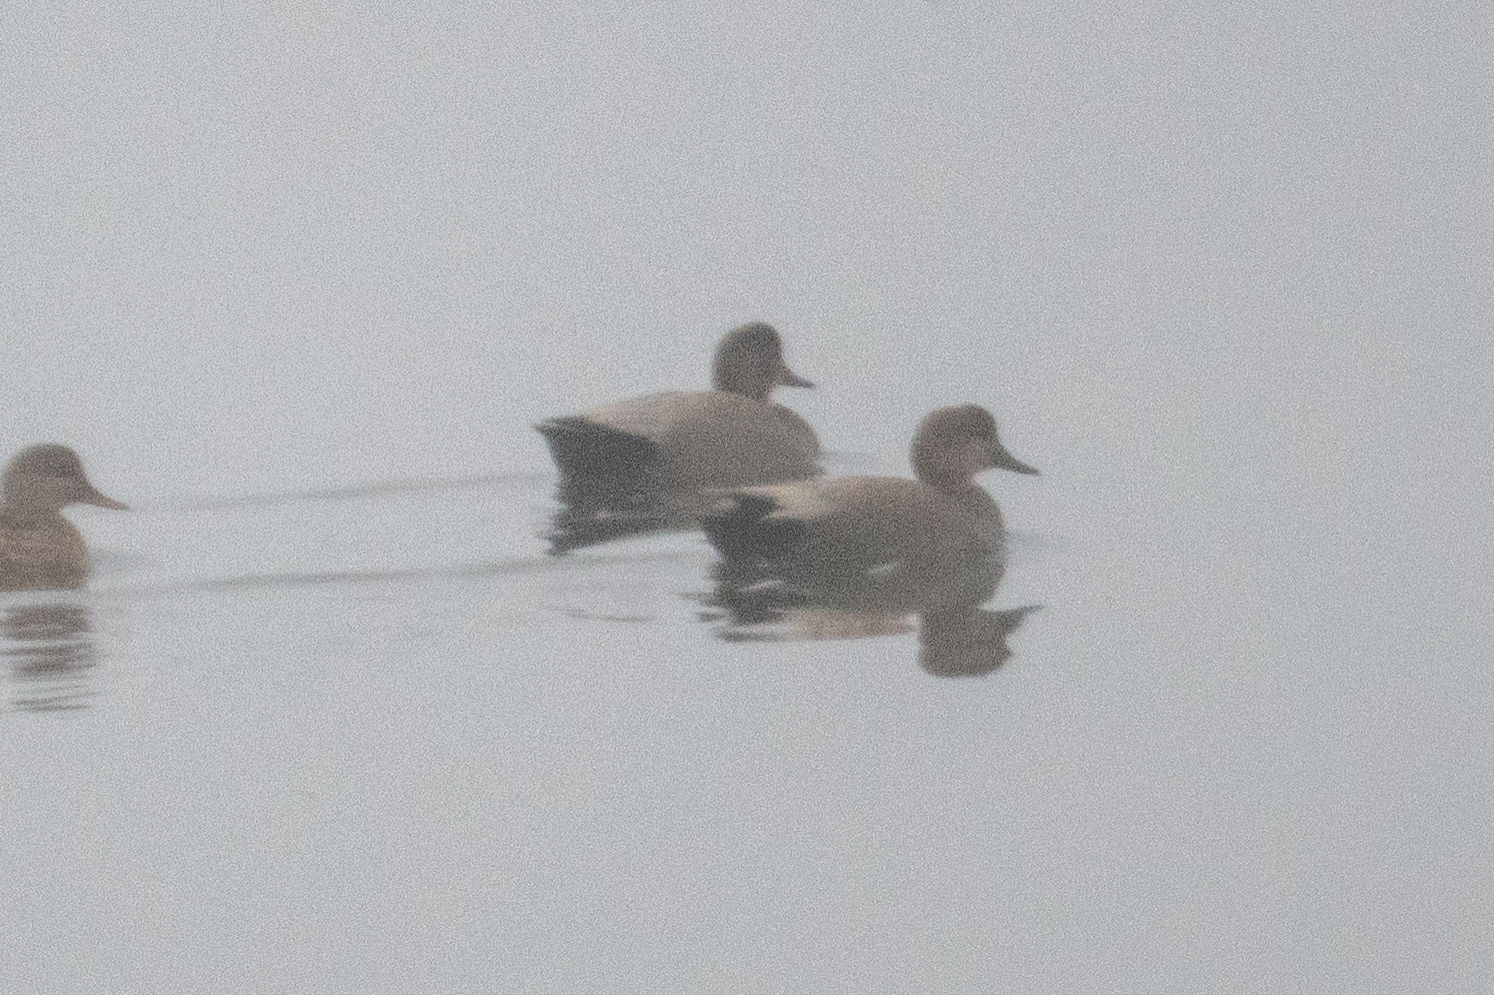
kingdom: Animalia
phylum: Chordata
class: Aves
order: Anseriformes
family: Anatidae
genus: Mareca
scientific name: Mareca strepera
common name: Gadwall
